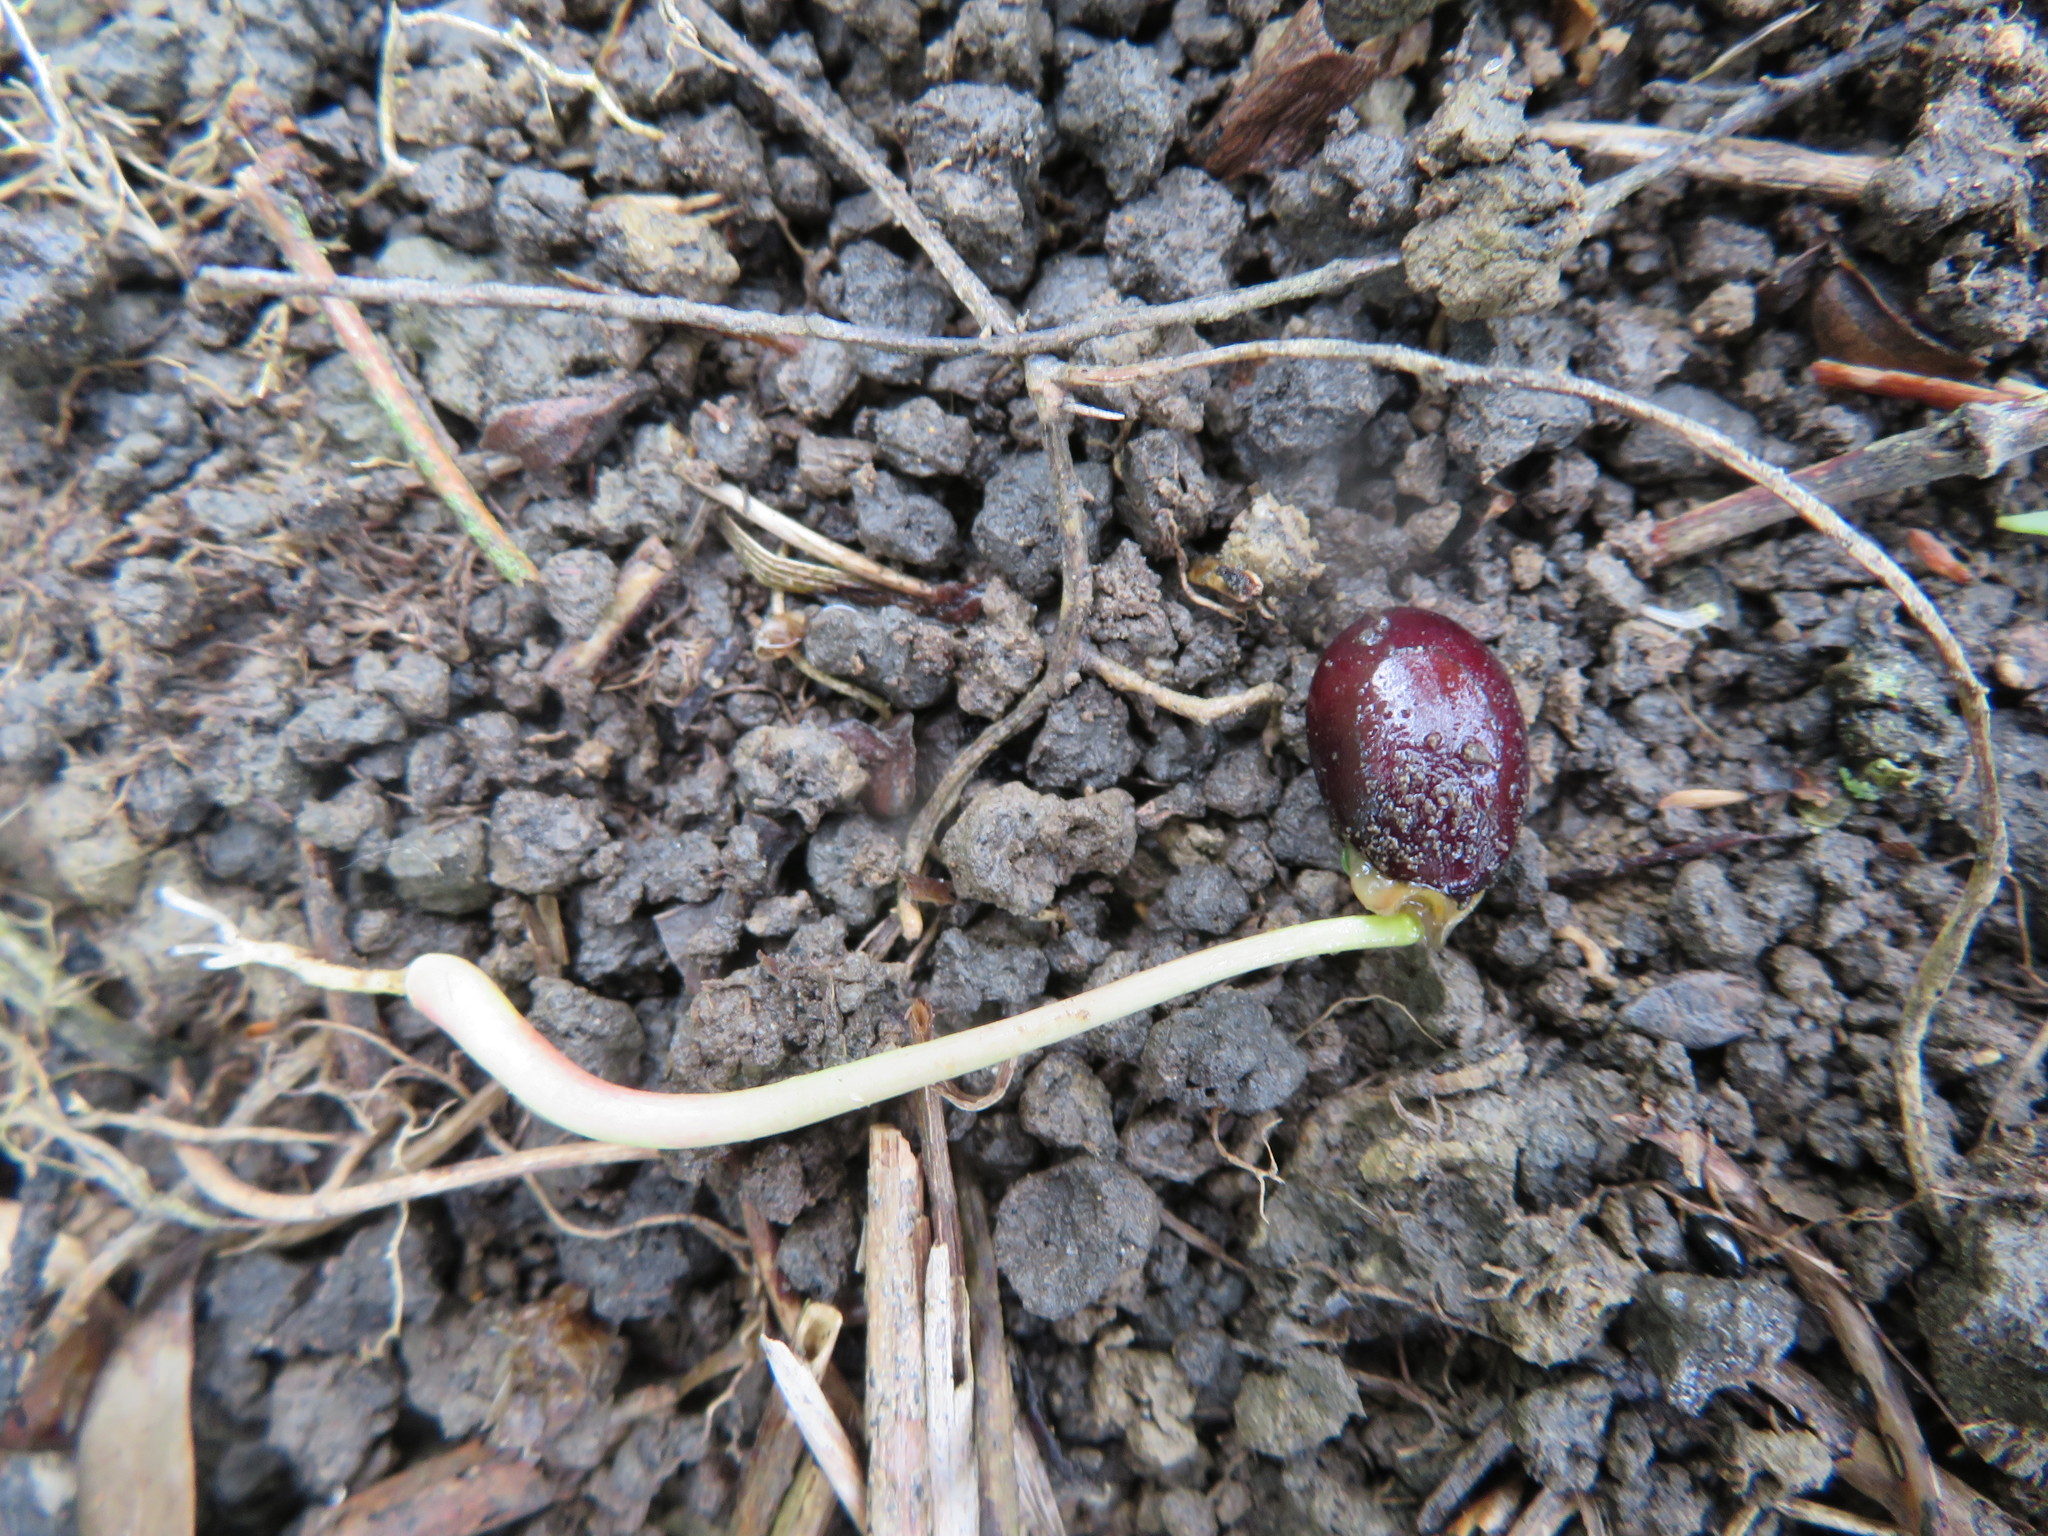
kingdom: Plantae
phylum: Tracheophyta
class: Magnoliopsida
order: Fabales
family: Fabaceae
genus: Paraserianthes
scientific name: Paraserianthes lophantha
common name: Plume albizia
